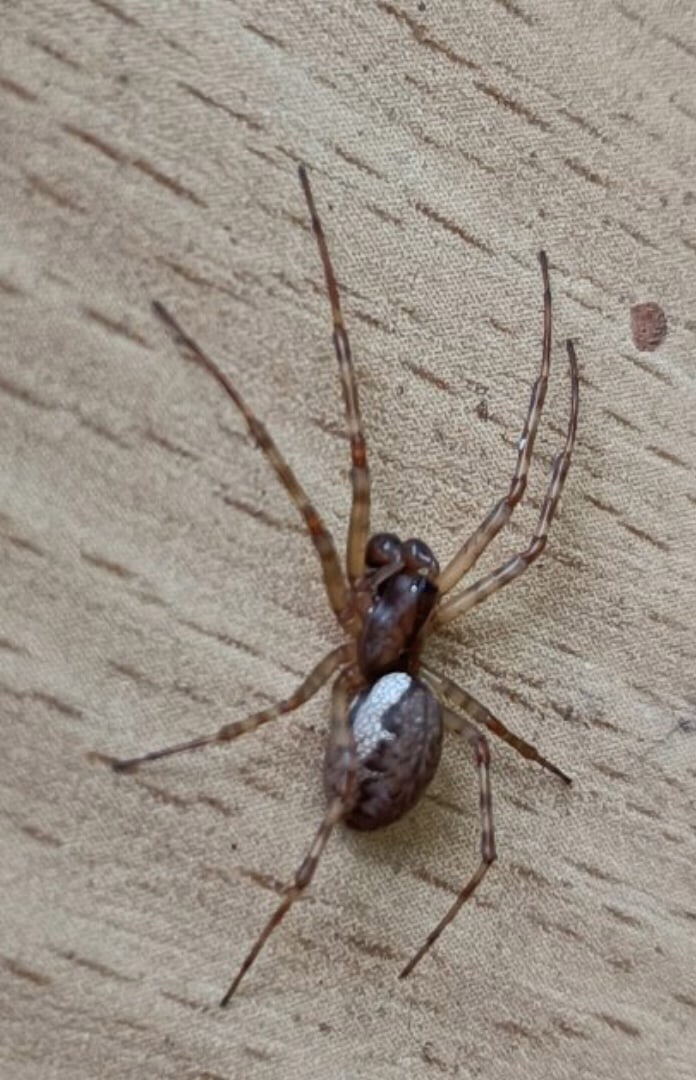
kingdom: Animalia
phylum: Arthropoda
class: Arachnida
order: Araneae
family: Linyphiidae
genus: Neriene
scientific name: Neriene montana
